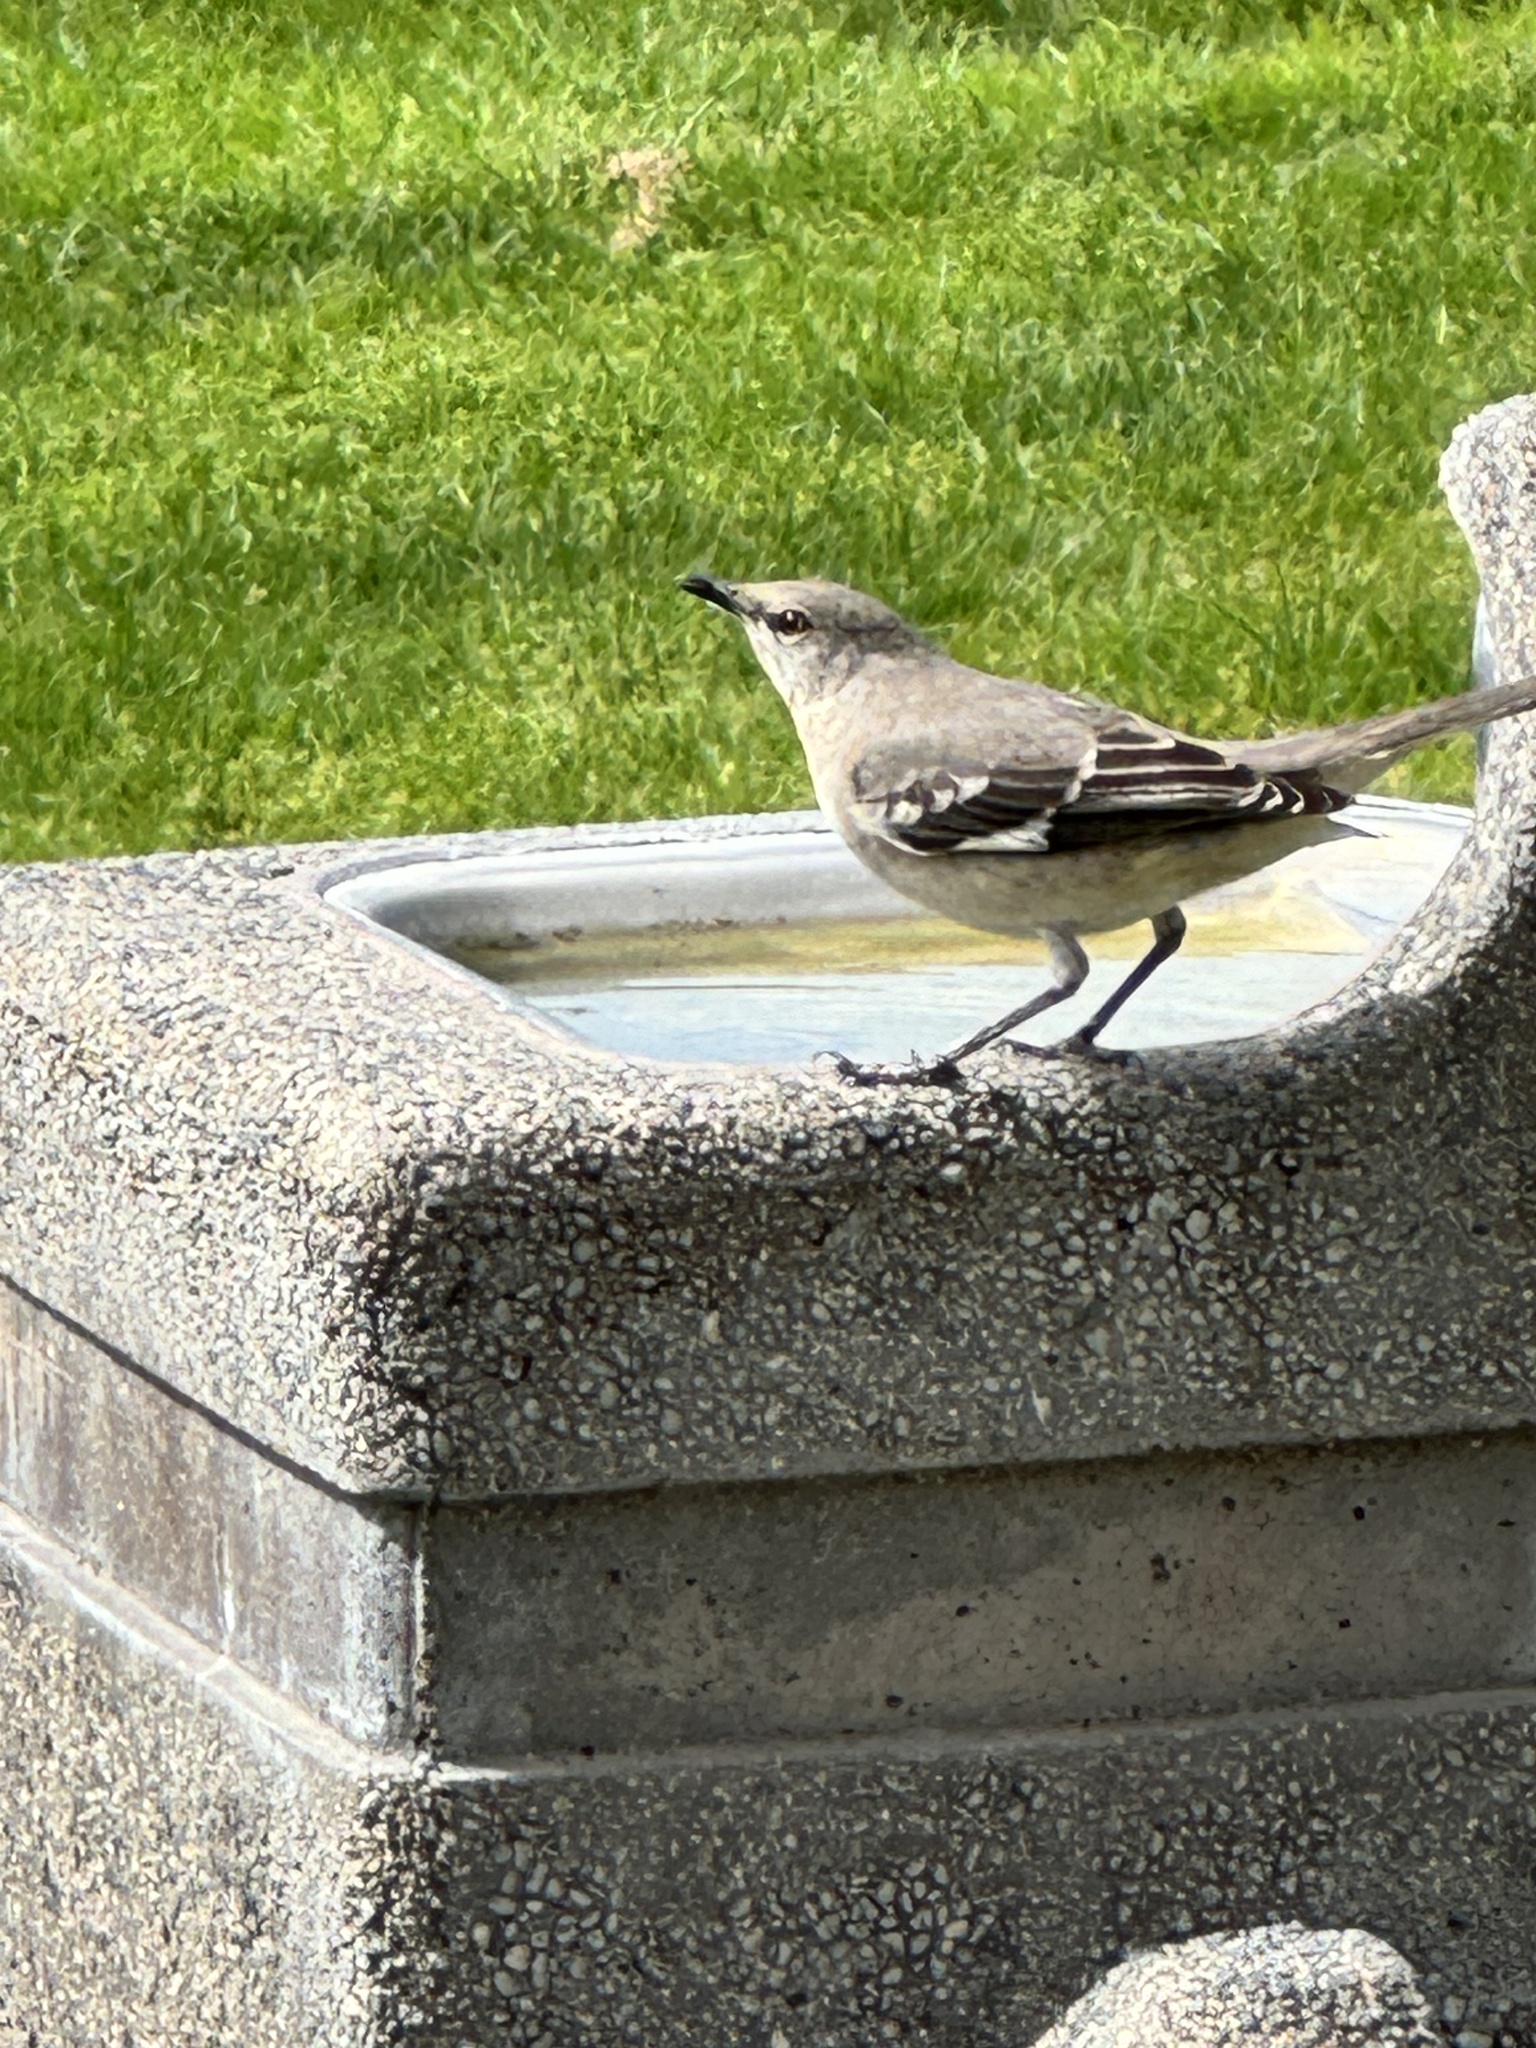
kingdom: Animalia
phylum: Chordata
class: Aves
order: Passeriformes
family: Mimidae
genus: Mimus
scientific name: Mimus polyglottos
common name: Northern mockingbird
